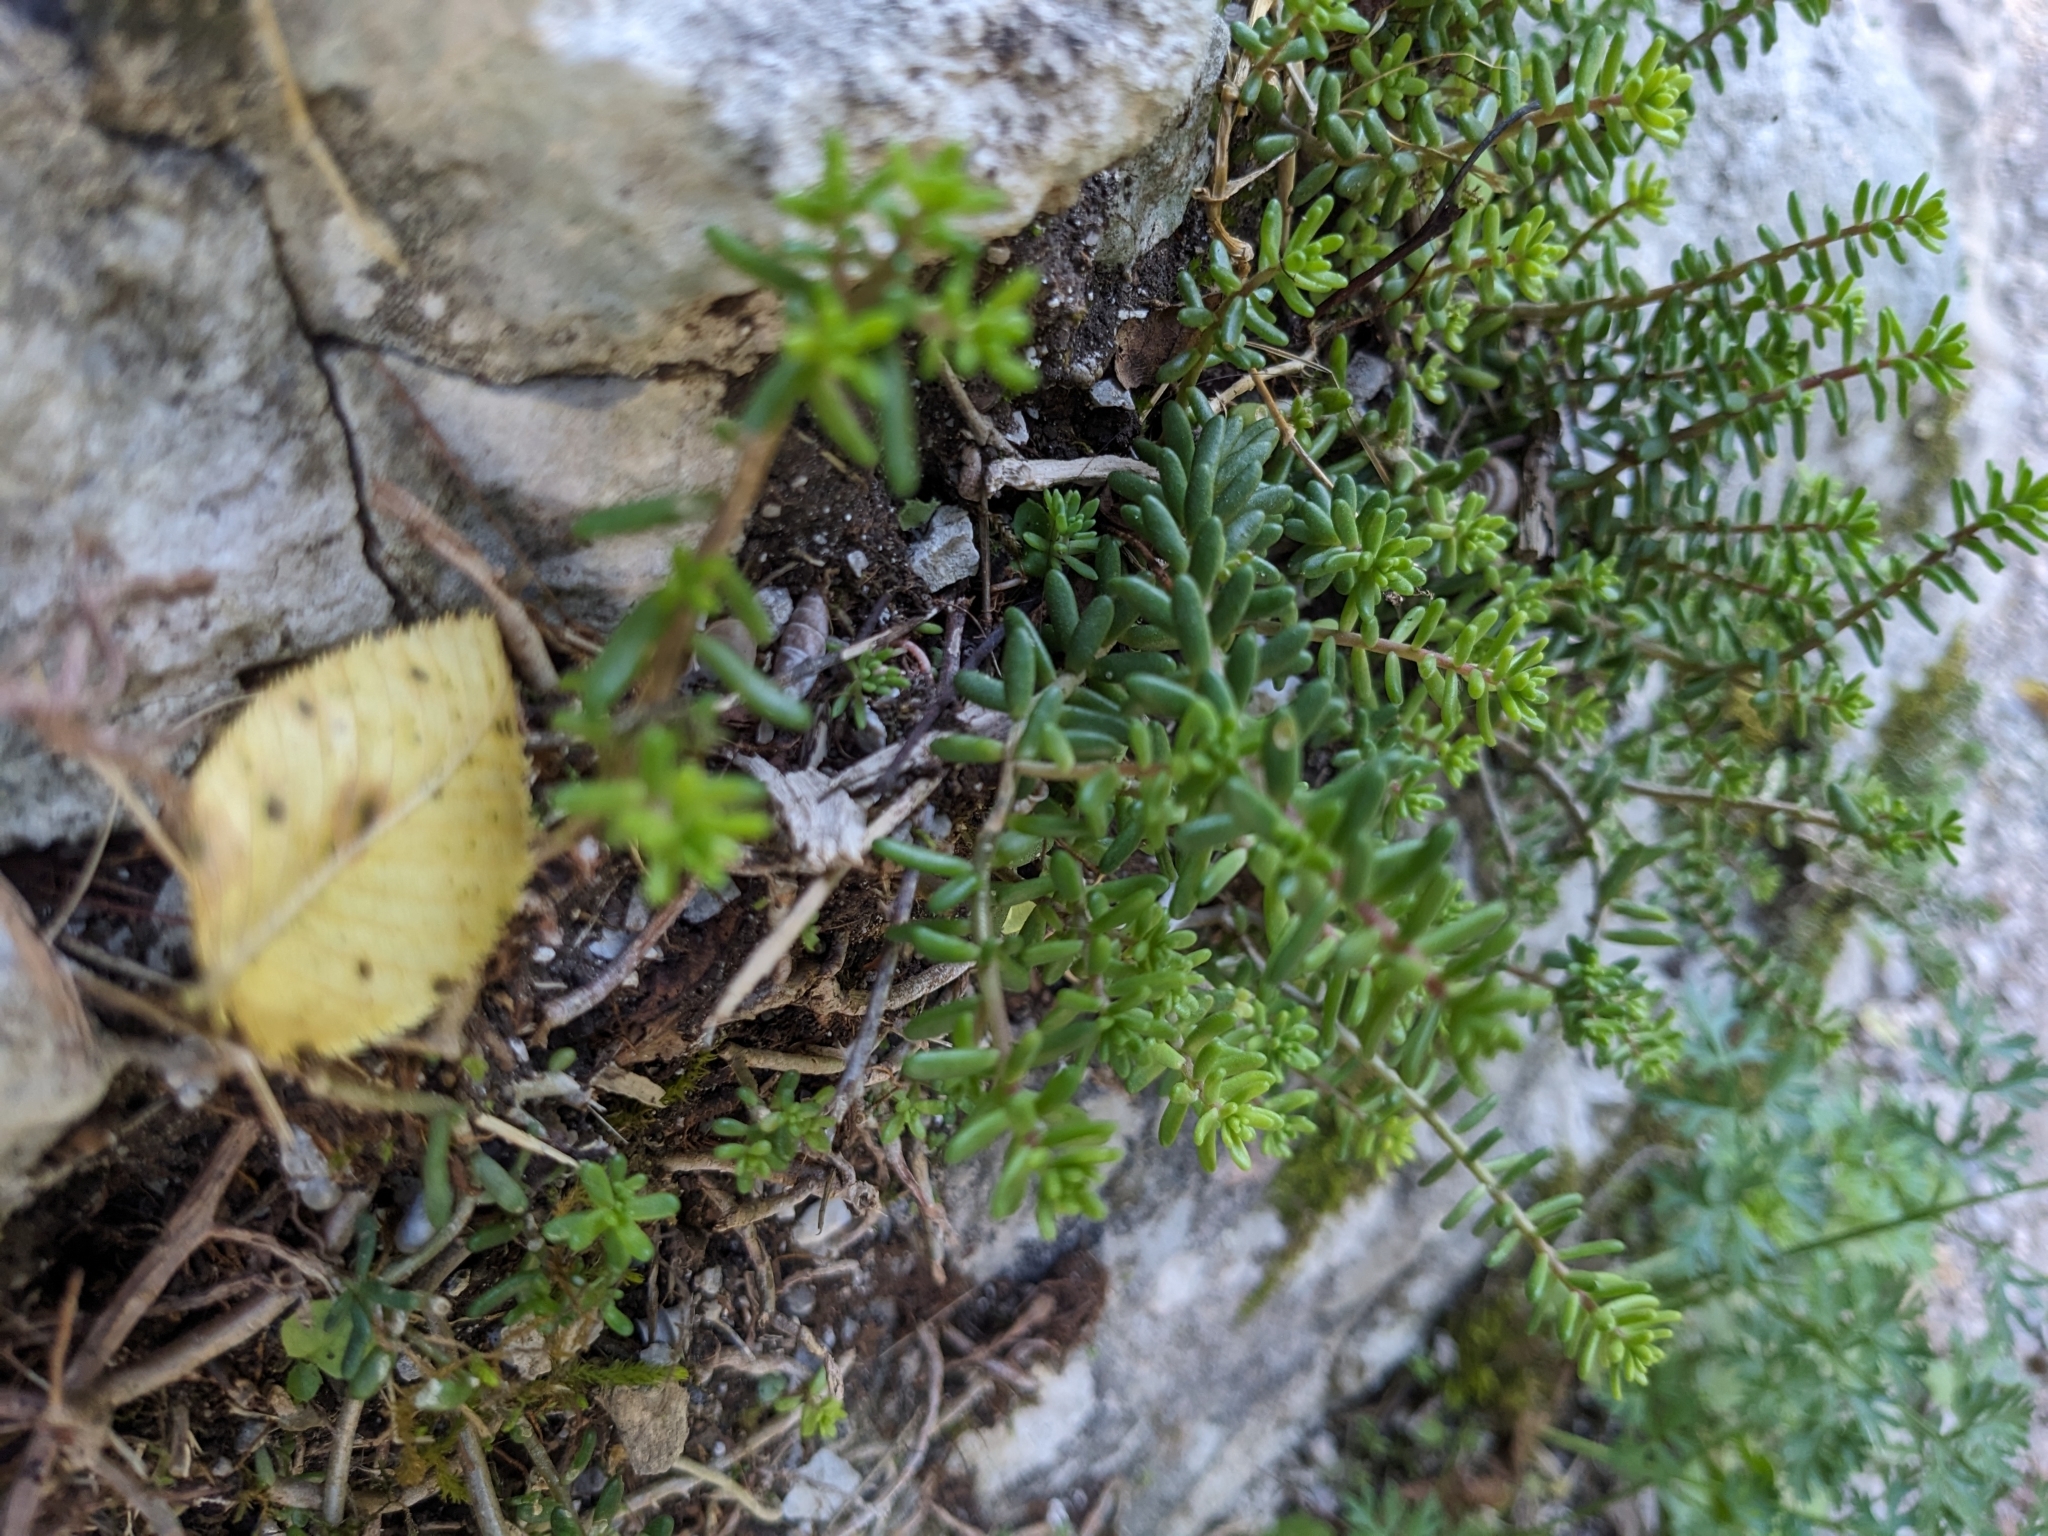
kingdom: Plantae
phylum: Tracheophyta
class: Magnoliopsida
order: Saxifragales
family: Crassulaceae
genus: Sedum
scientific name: Sedum album
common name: White stonecrop
